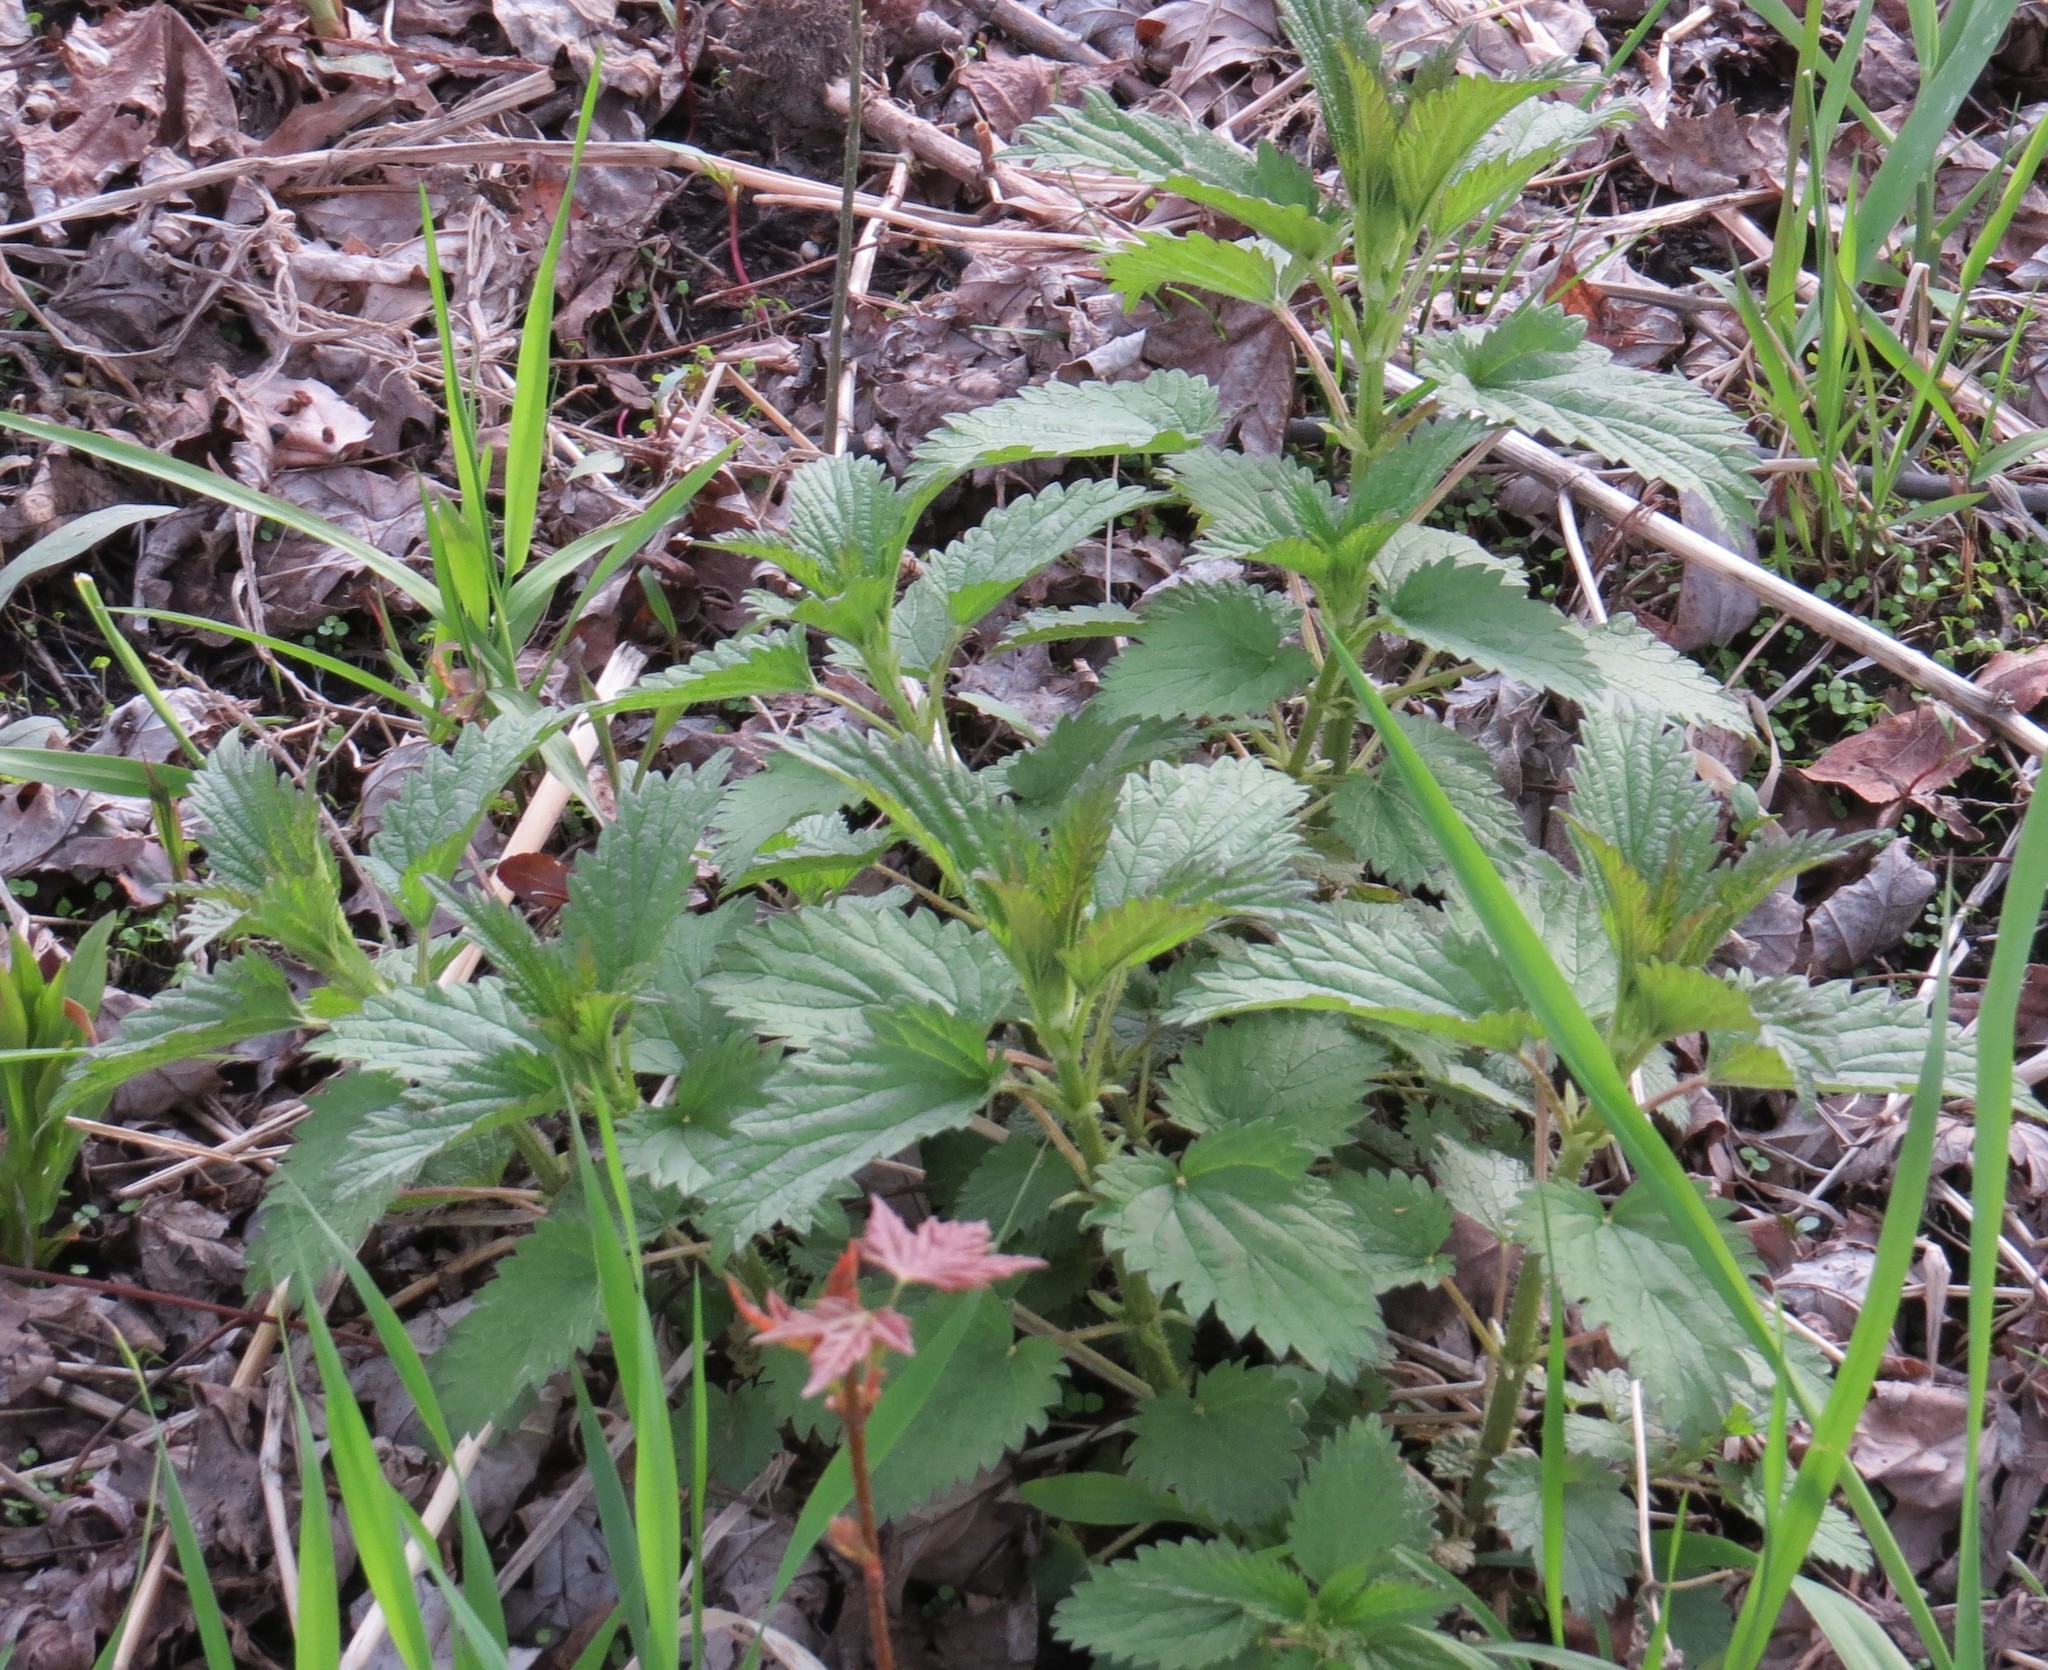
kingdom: Plantae
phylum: Tracheophyta
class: Magnoliopsida
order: Rosales
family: Urticaceae
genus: Urtica
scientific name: Urtica dioica
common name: Common nettle
